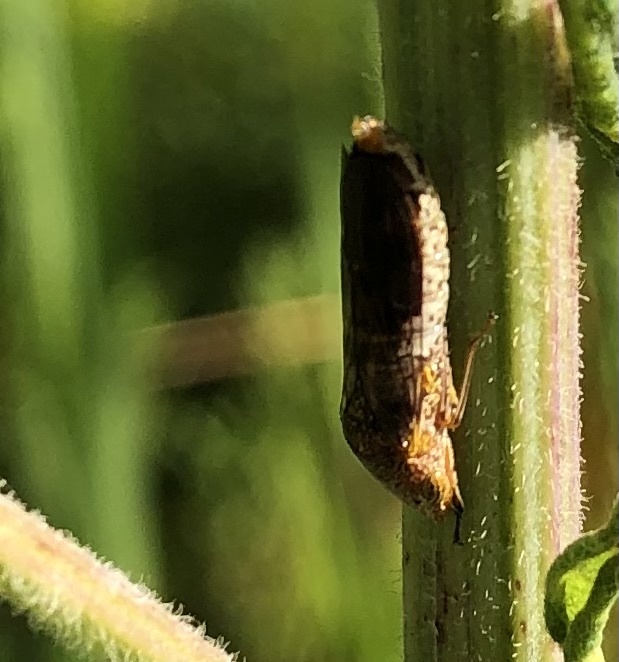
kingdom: Animalia
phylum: Arthropoda
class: Insecta
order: Hemiptera
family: Cicadellidae
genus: Homalodisca
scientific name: Homalodisca vitripennis
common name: Glassy-winged sharpshooter
